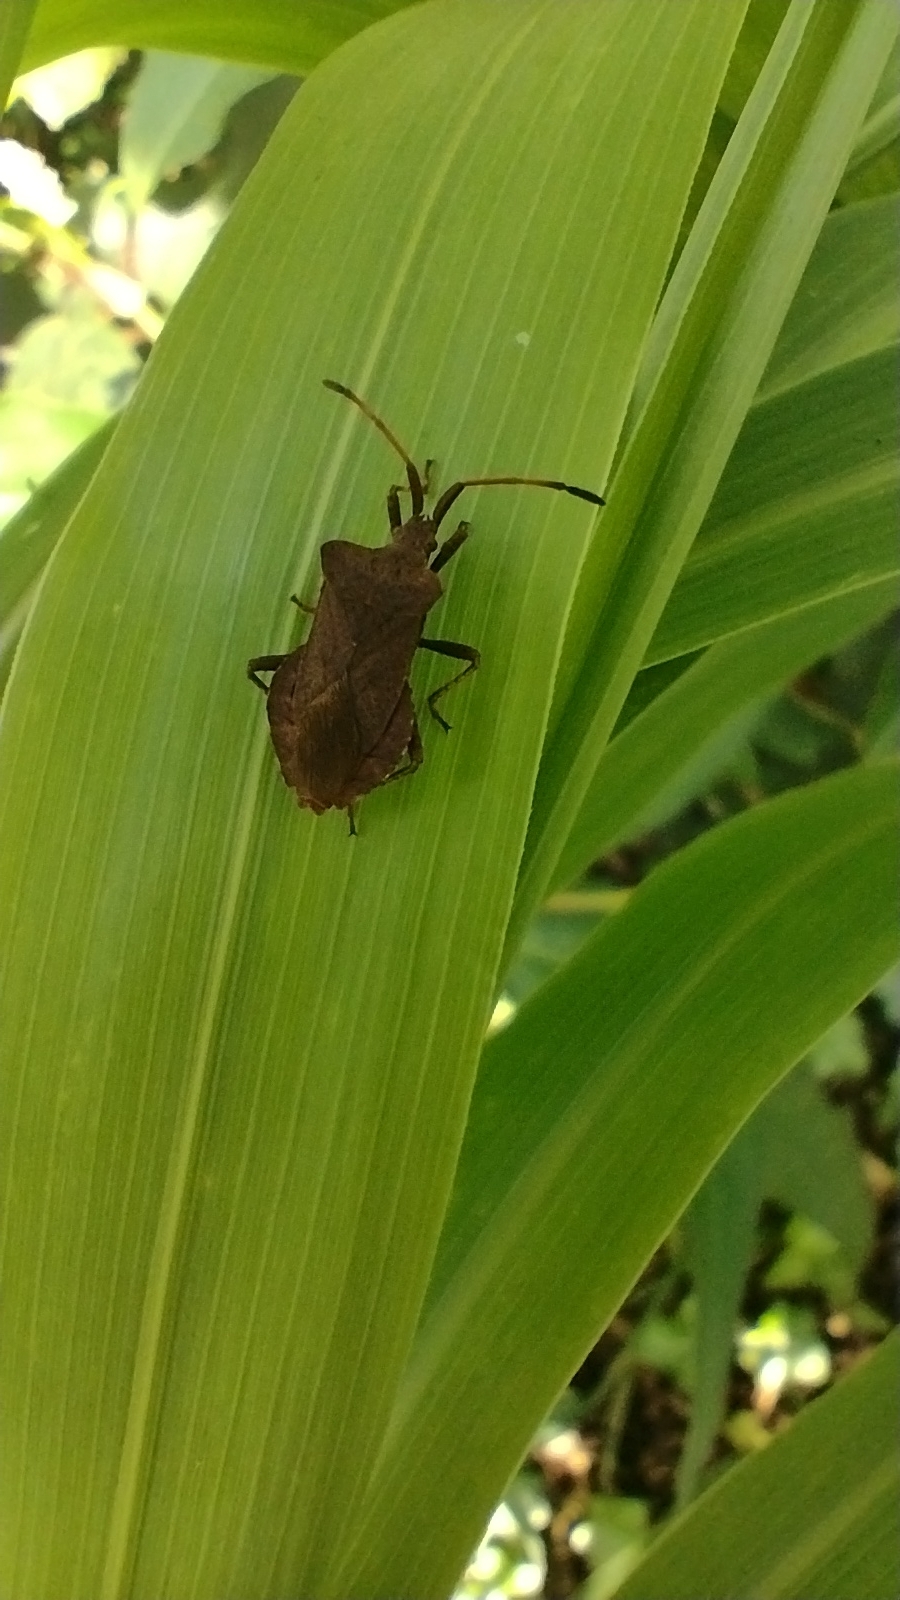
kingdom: Animalia
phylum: Arthropoda
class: Insecta
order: Hemiptera
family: Coreidae
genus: Coreus
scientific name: Coreus marginatus
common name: Dock bug
